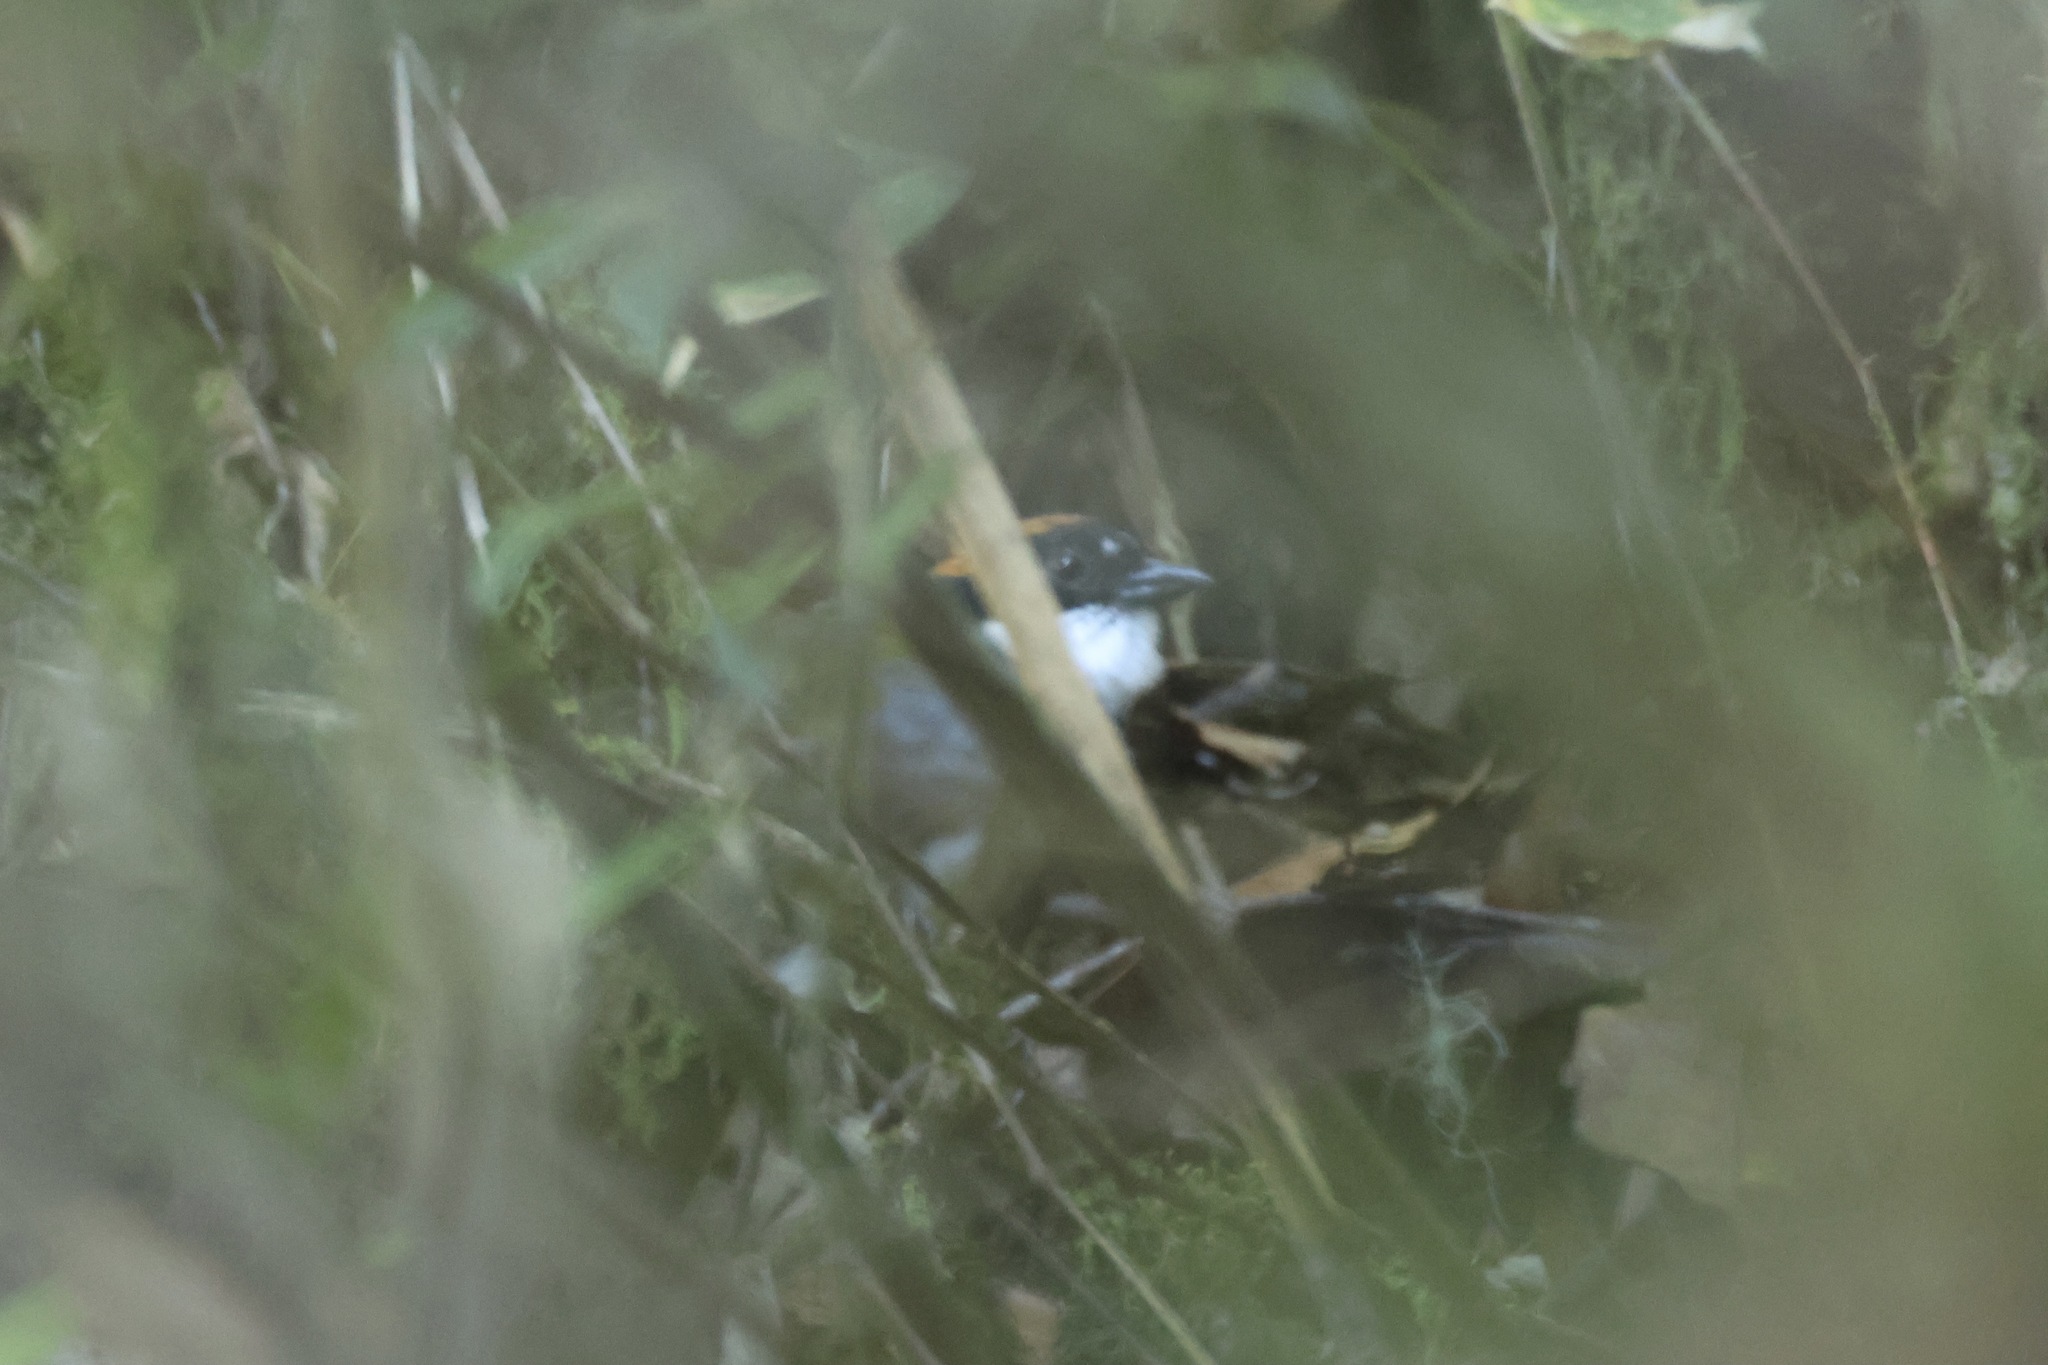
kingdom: Animalia
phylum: Chordata
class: Aves
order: Passeriformes
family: Passerellidae
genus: Arremon
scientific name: Arremon brunneinucha
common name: Chestnut-capped brushfinch
